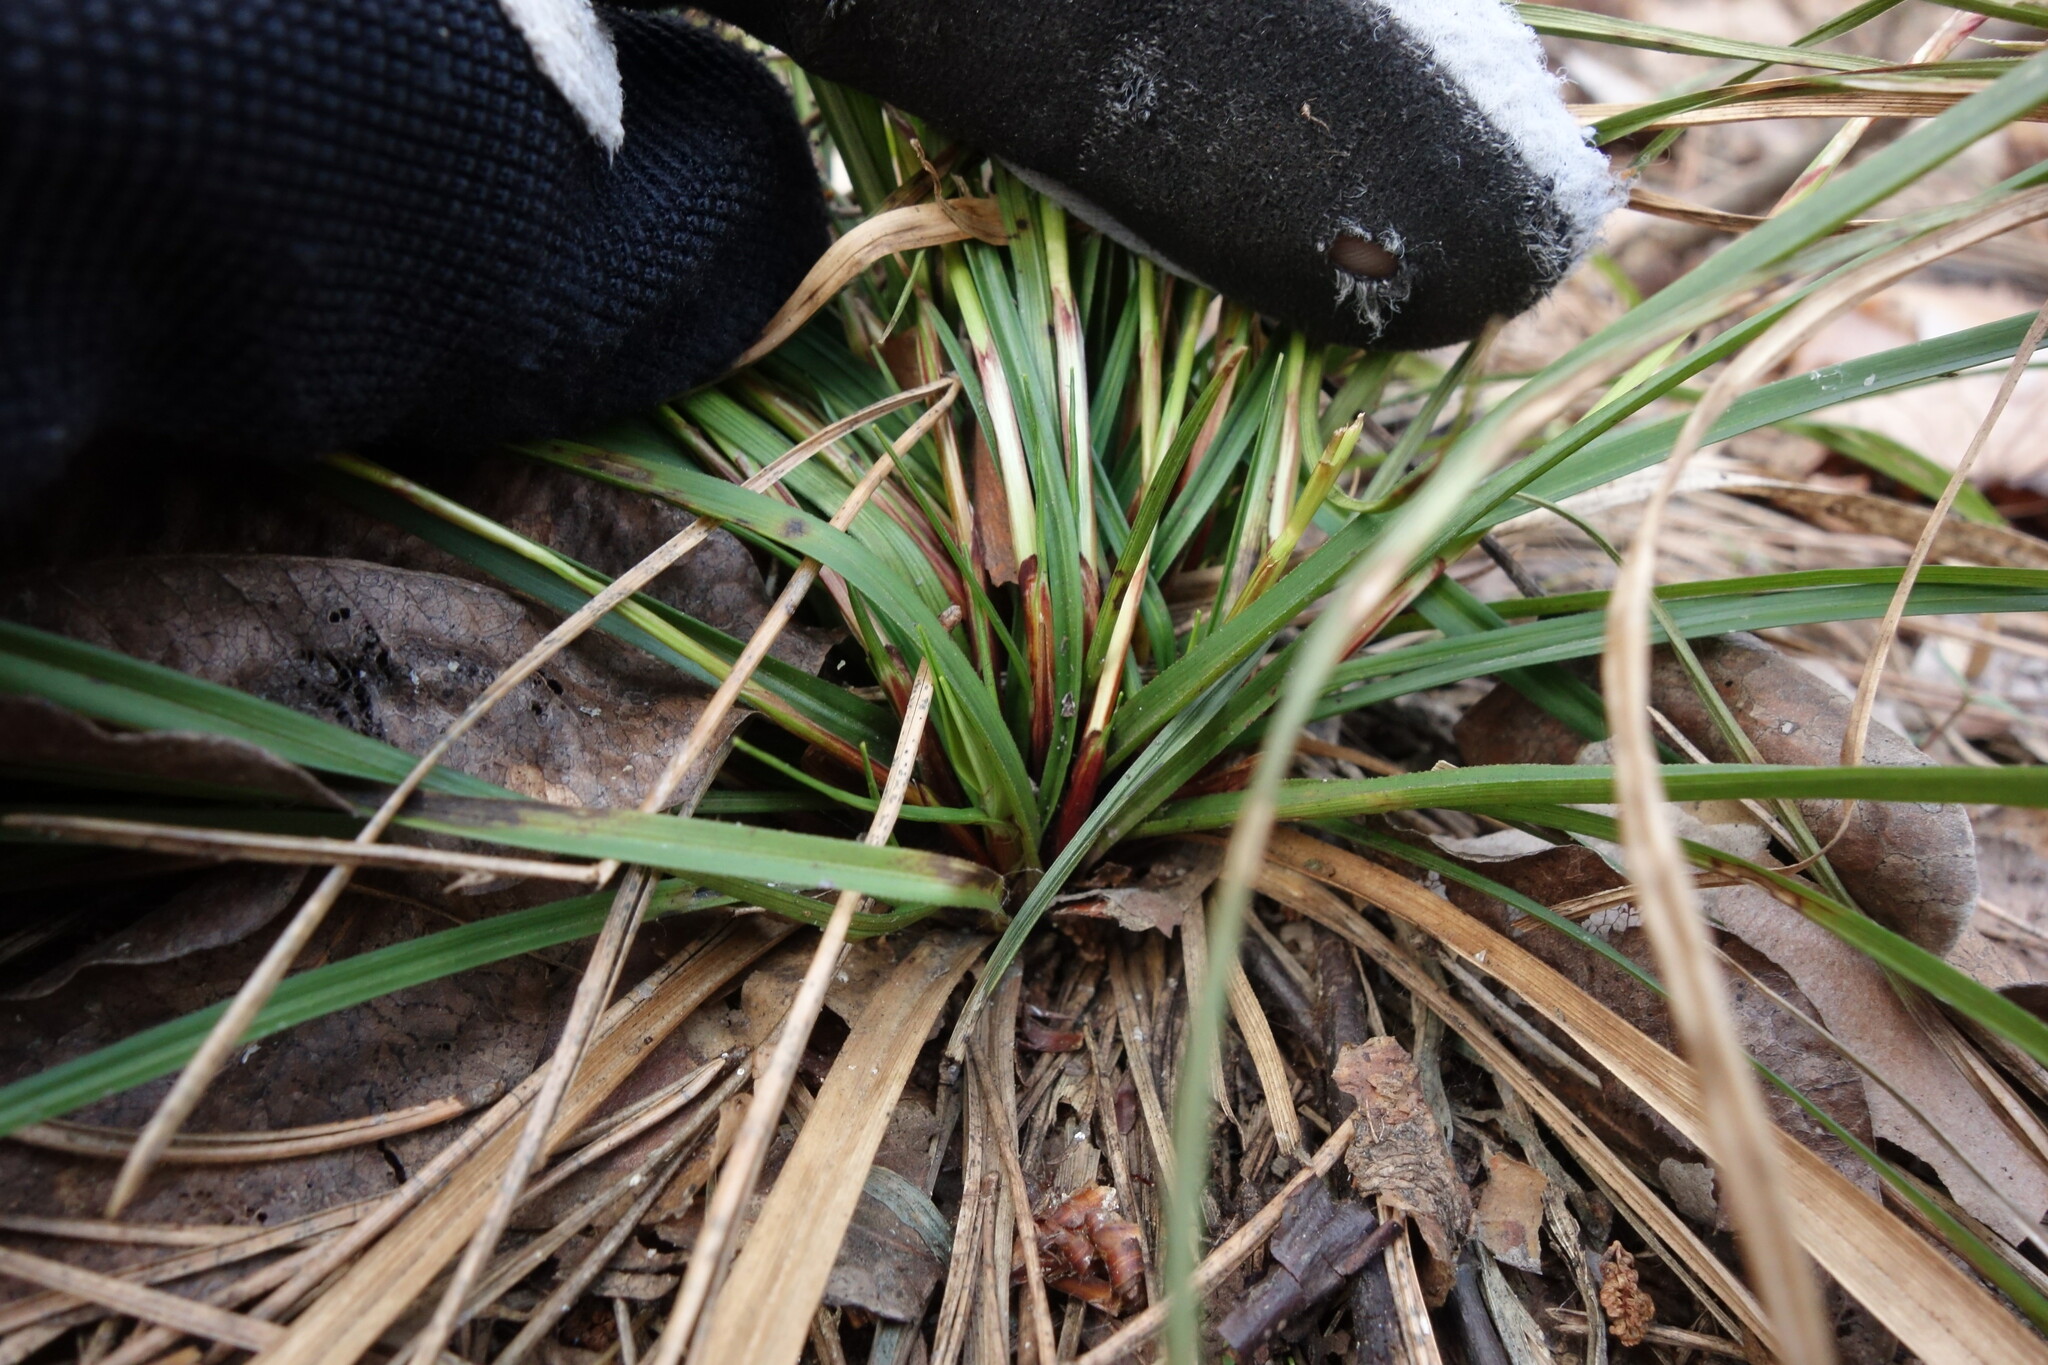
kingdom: Plantae
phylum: Tracheophyta
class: Liliopsida
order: Poales
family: Cyperaceae
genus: Carex
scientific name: Carex digitata
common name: Fingered sedge
